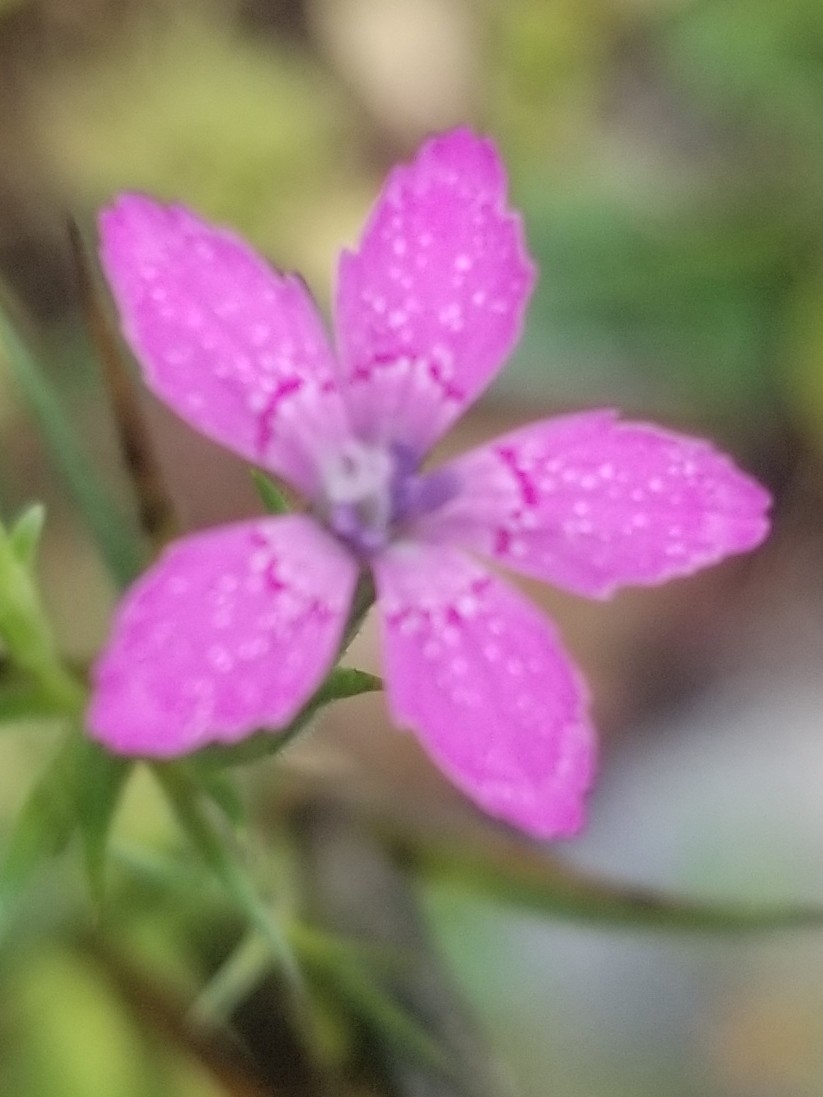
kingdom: Plantae
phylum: Tracheophyta
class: Magnoliopsida
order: Caryophyllales
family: Caryophyllaceae
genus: Dianthus
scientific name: Dianthus armeria
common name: Deptford pink
